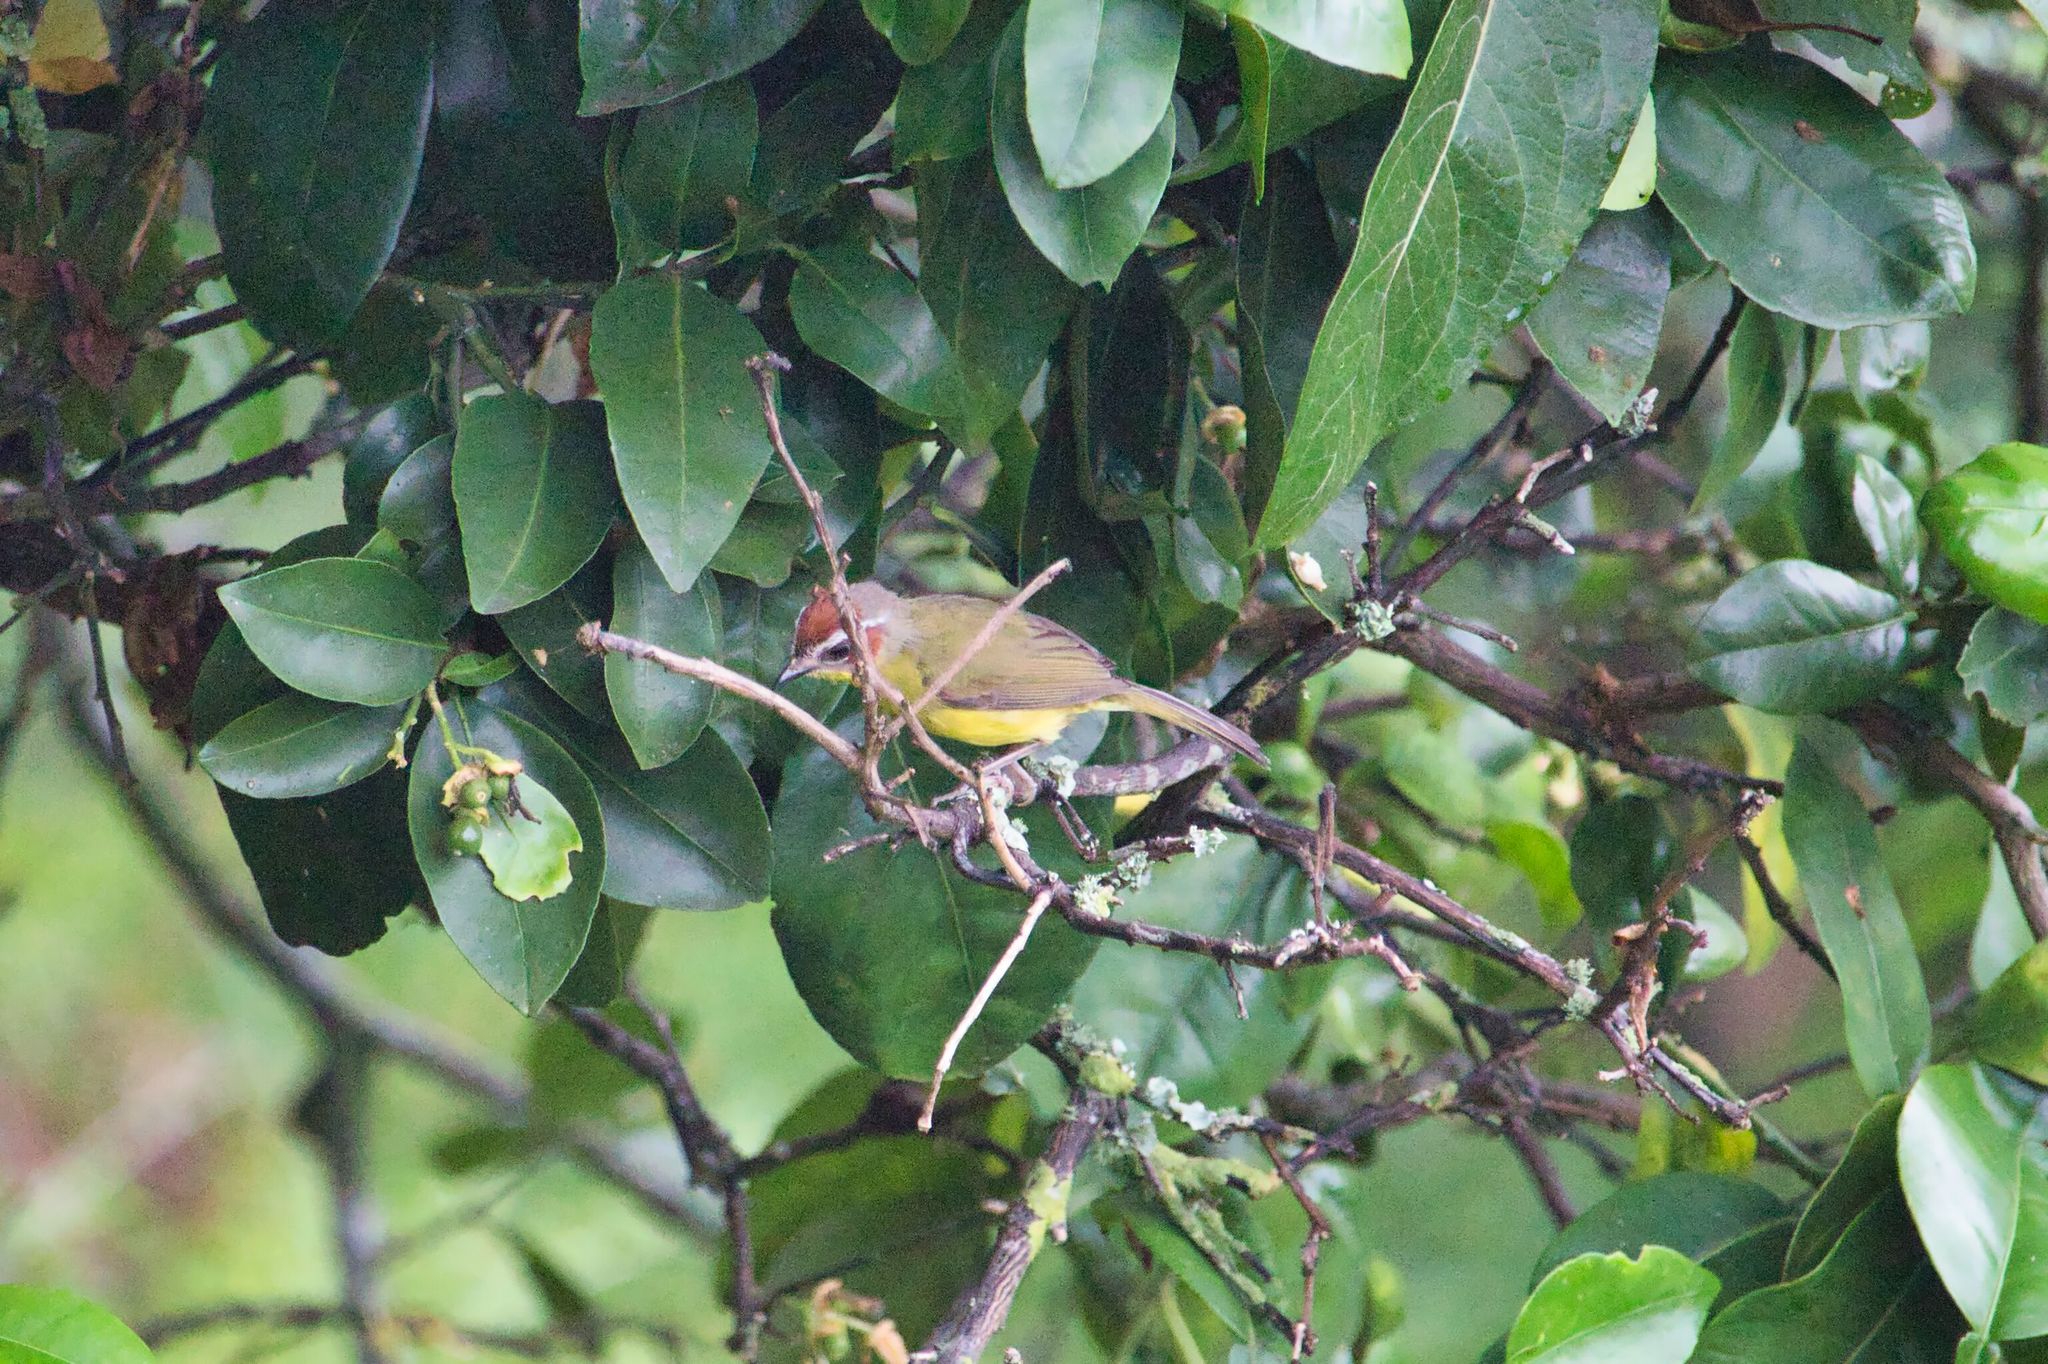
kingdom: Animalia
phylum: Chordata
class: Aves
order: Passeriformes
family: Parulidae
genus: Basileuterus
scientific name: Basileuterus rufifrons
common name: Rufous-capped warbler
